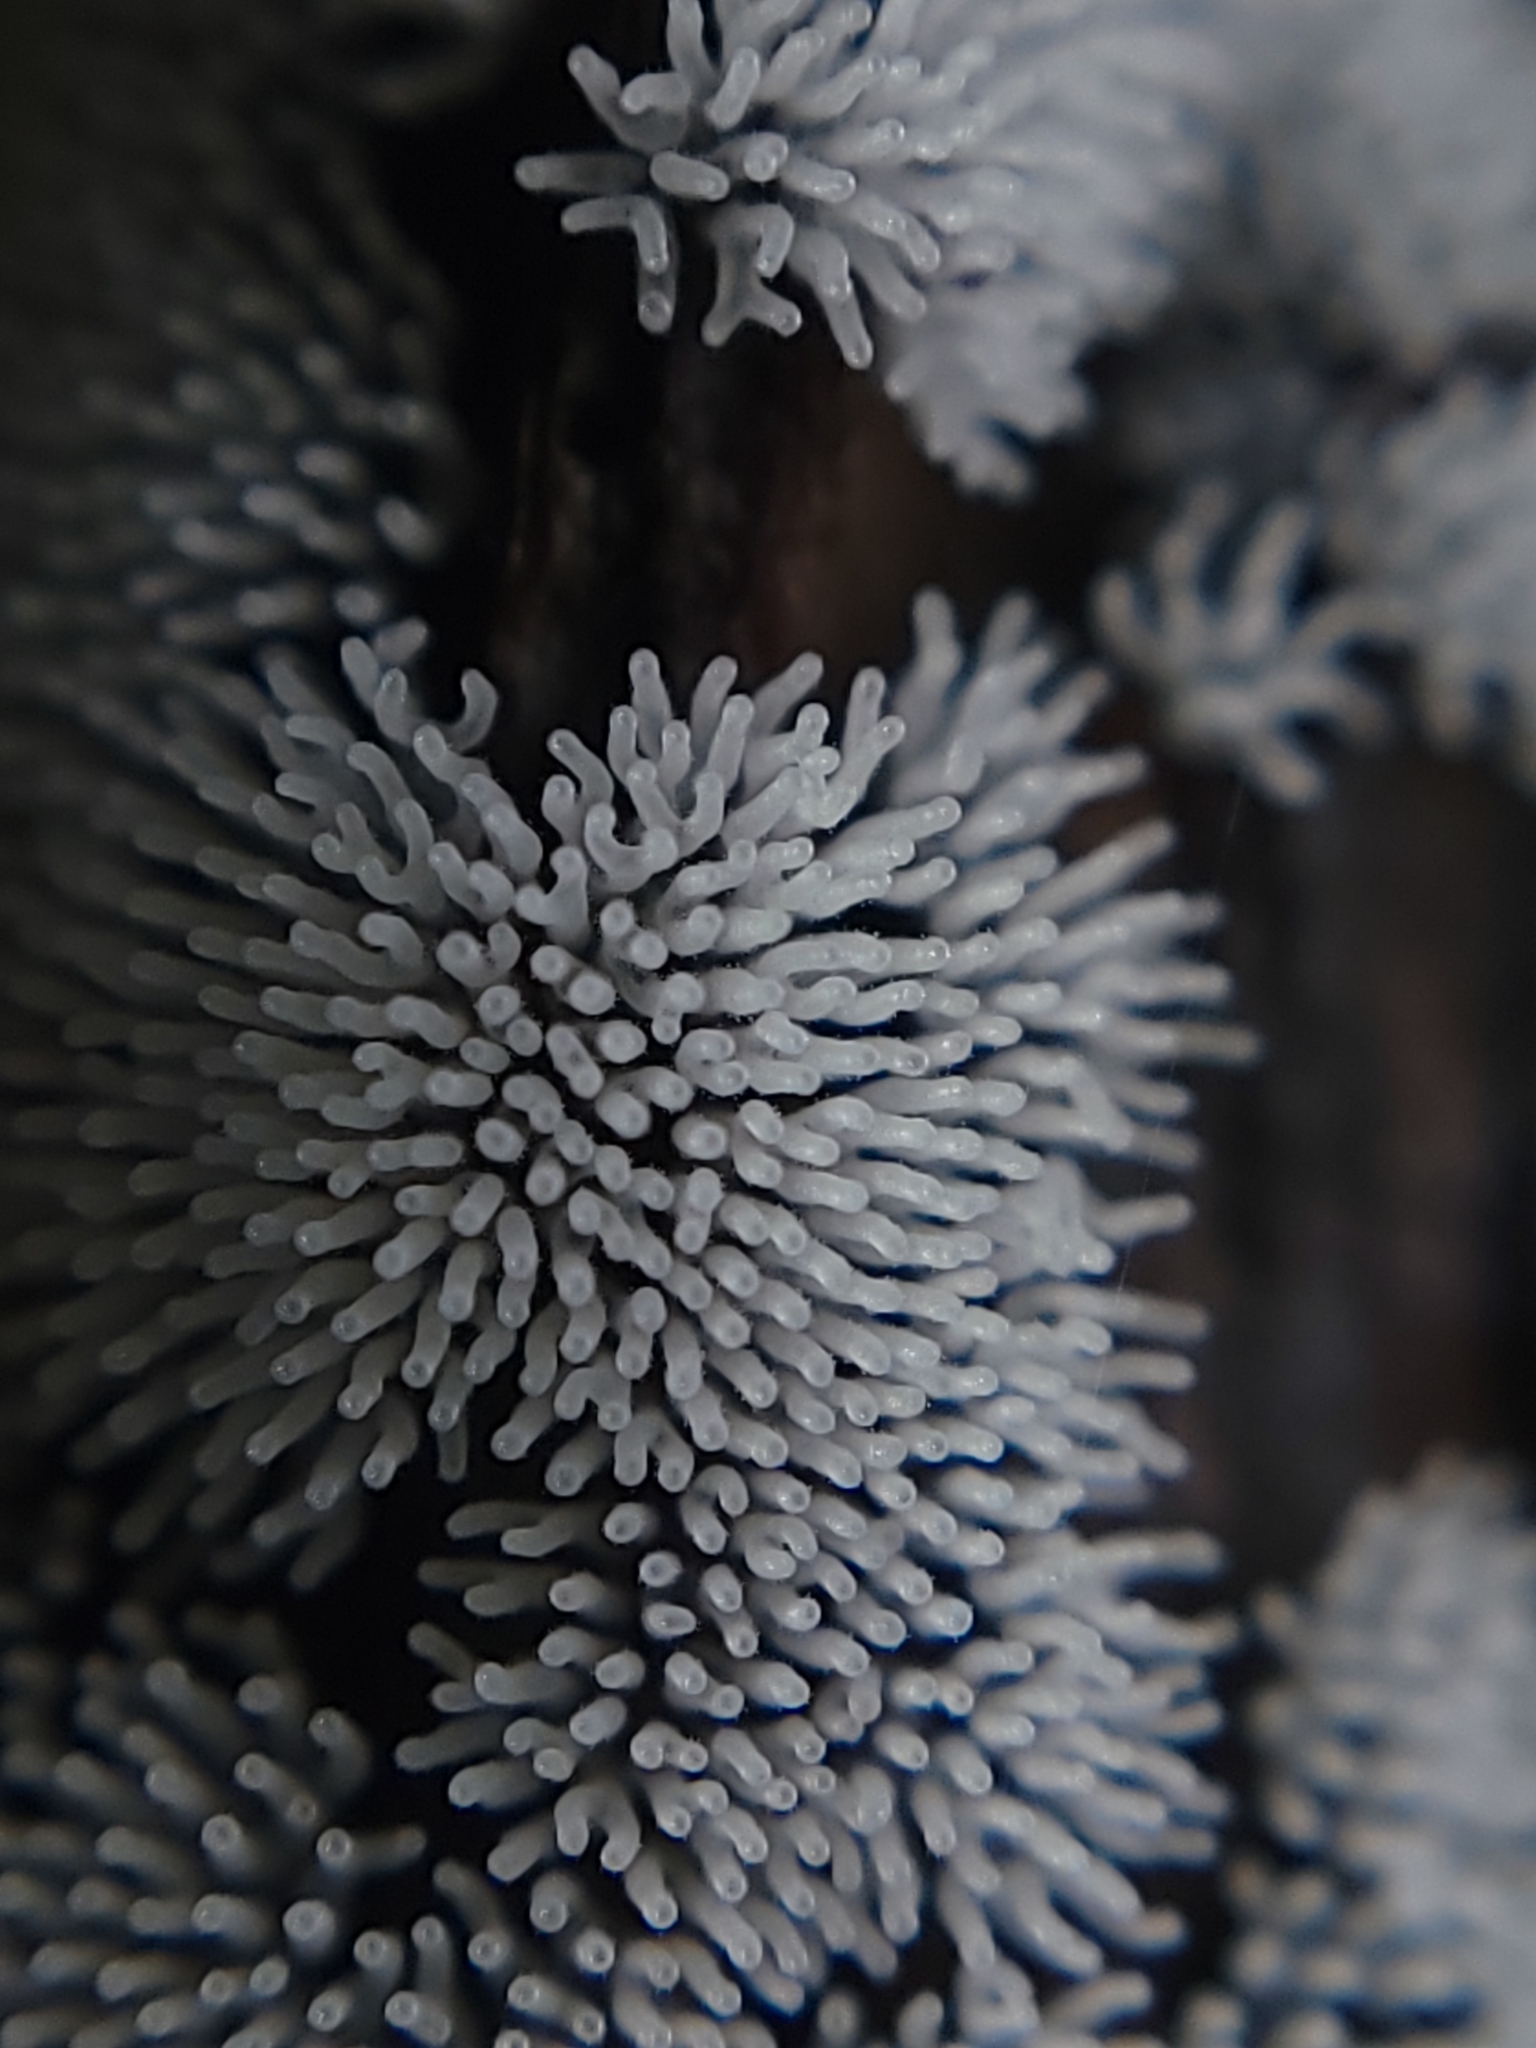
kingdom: Protozoa
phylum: Mycetozoa
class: Protosteliomycetes
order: Ceratiomyxales
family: Ceratiomyxaceae
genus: Ceratiomyxa
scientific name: Ceratiomyxa fruticulosa
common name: Honeycomb coral slime mold
